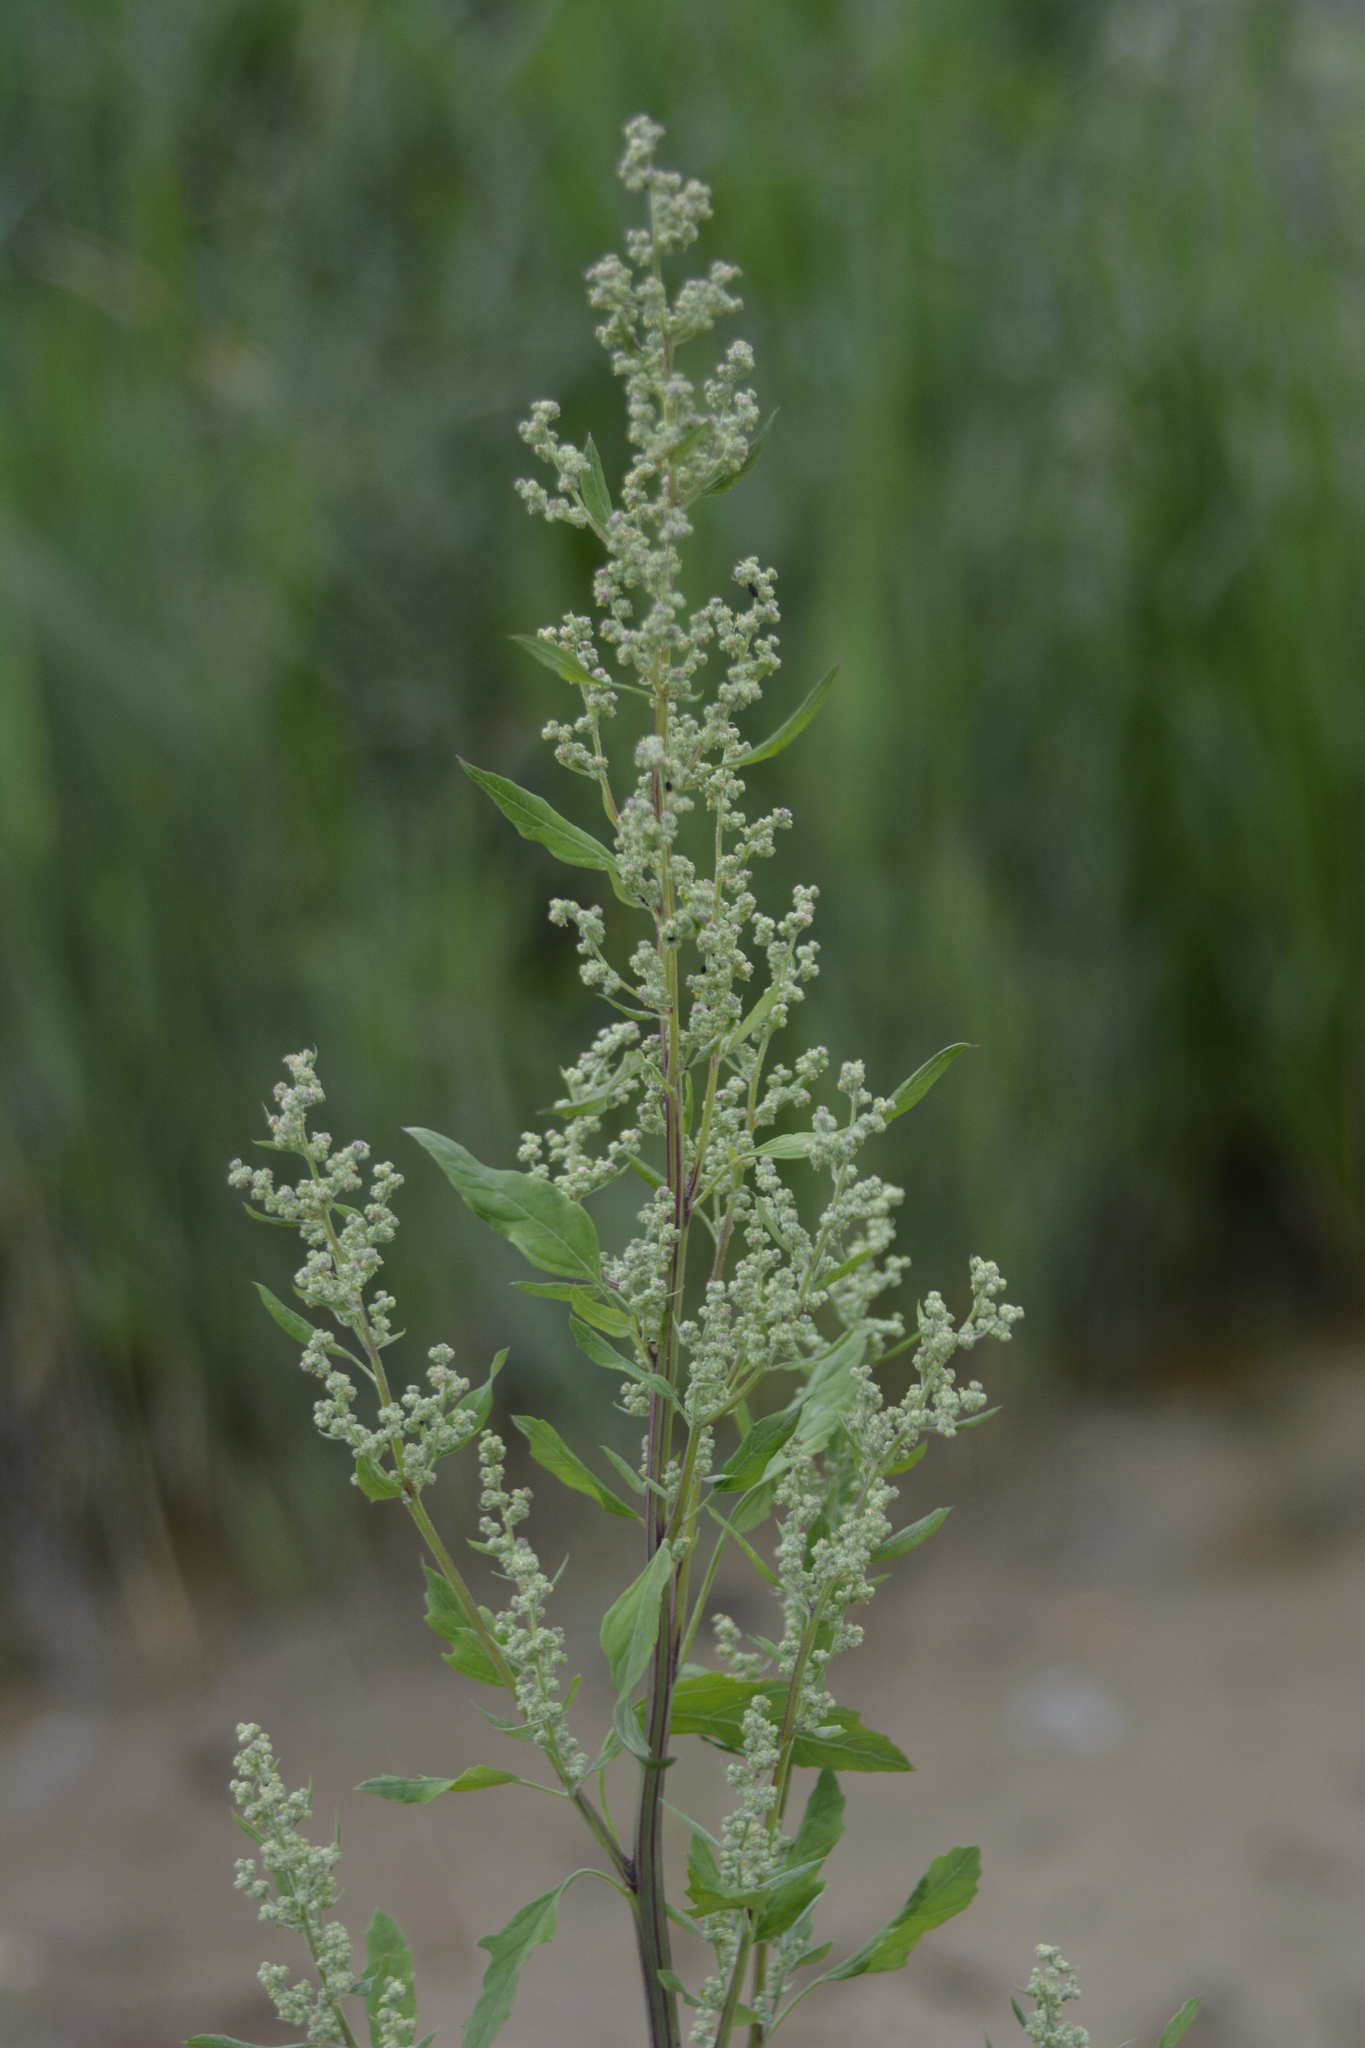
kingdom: Plantae
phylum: Tracheophyta
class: Magnoliopsida
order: Caryophyllales
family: Amaranthaceae
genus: Chenopodium
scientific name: Chenopodium album
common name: Fat-hen
